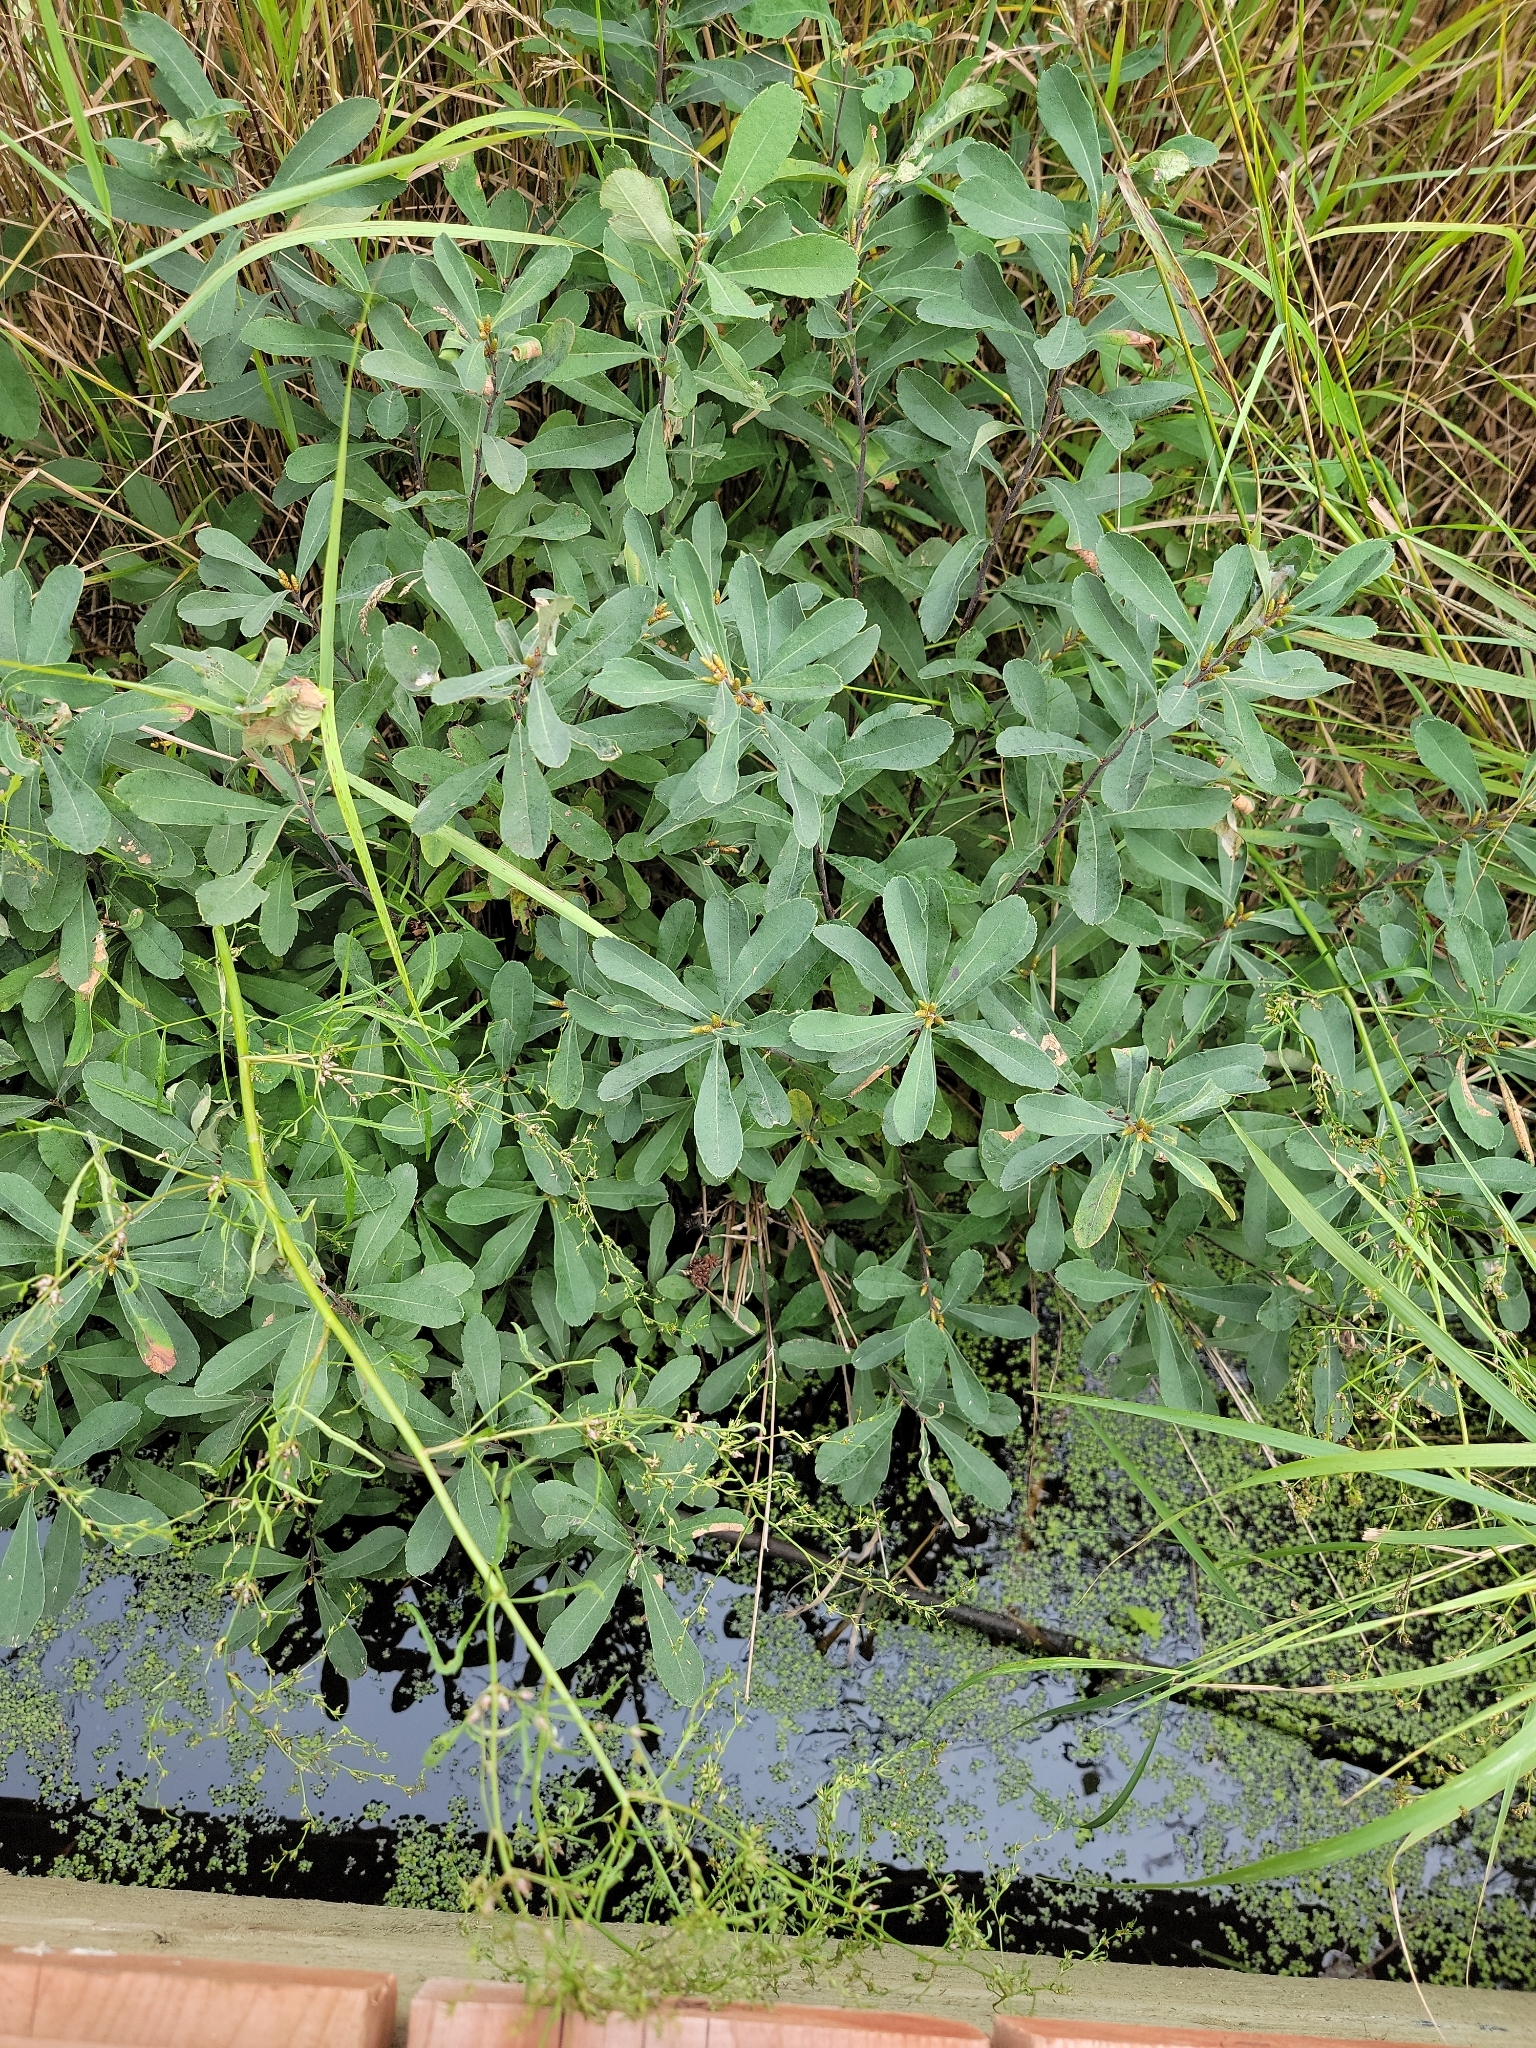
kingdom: Plantae
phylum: Tracheophyta
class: Magnoliopsida
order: Fagales
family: Myricaceae
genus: Myrica
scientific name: Myrica gale
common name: Sweet gale
